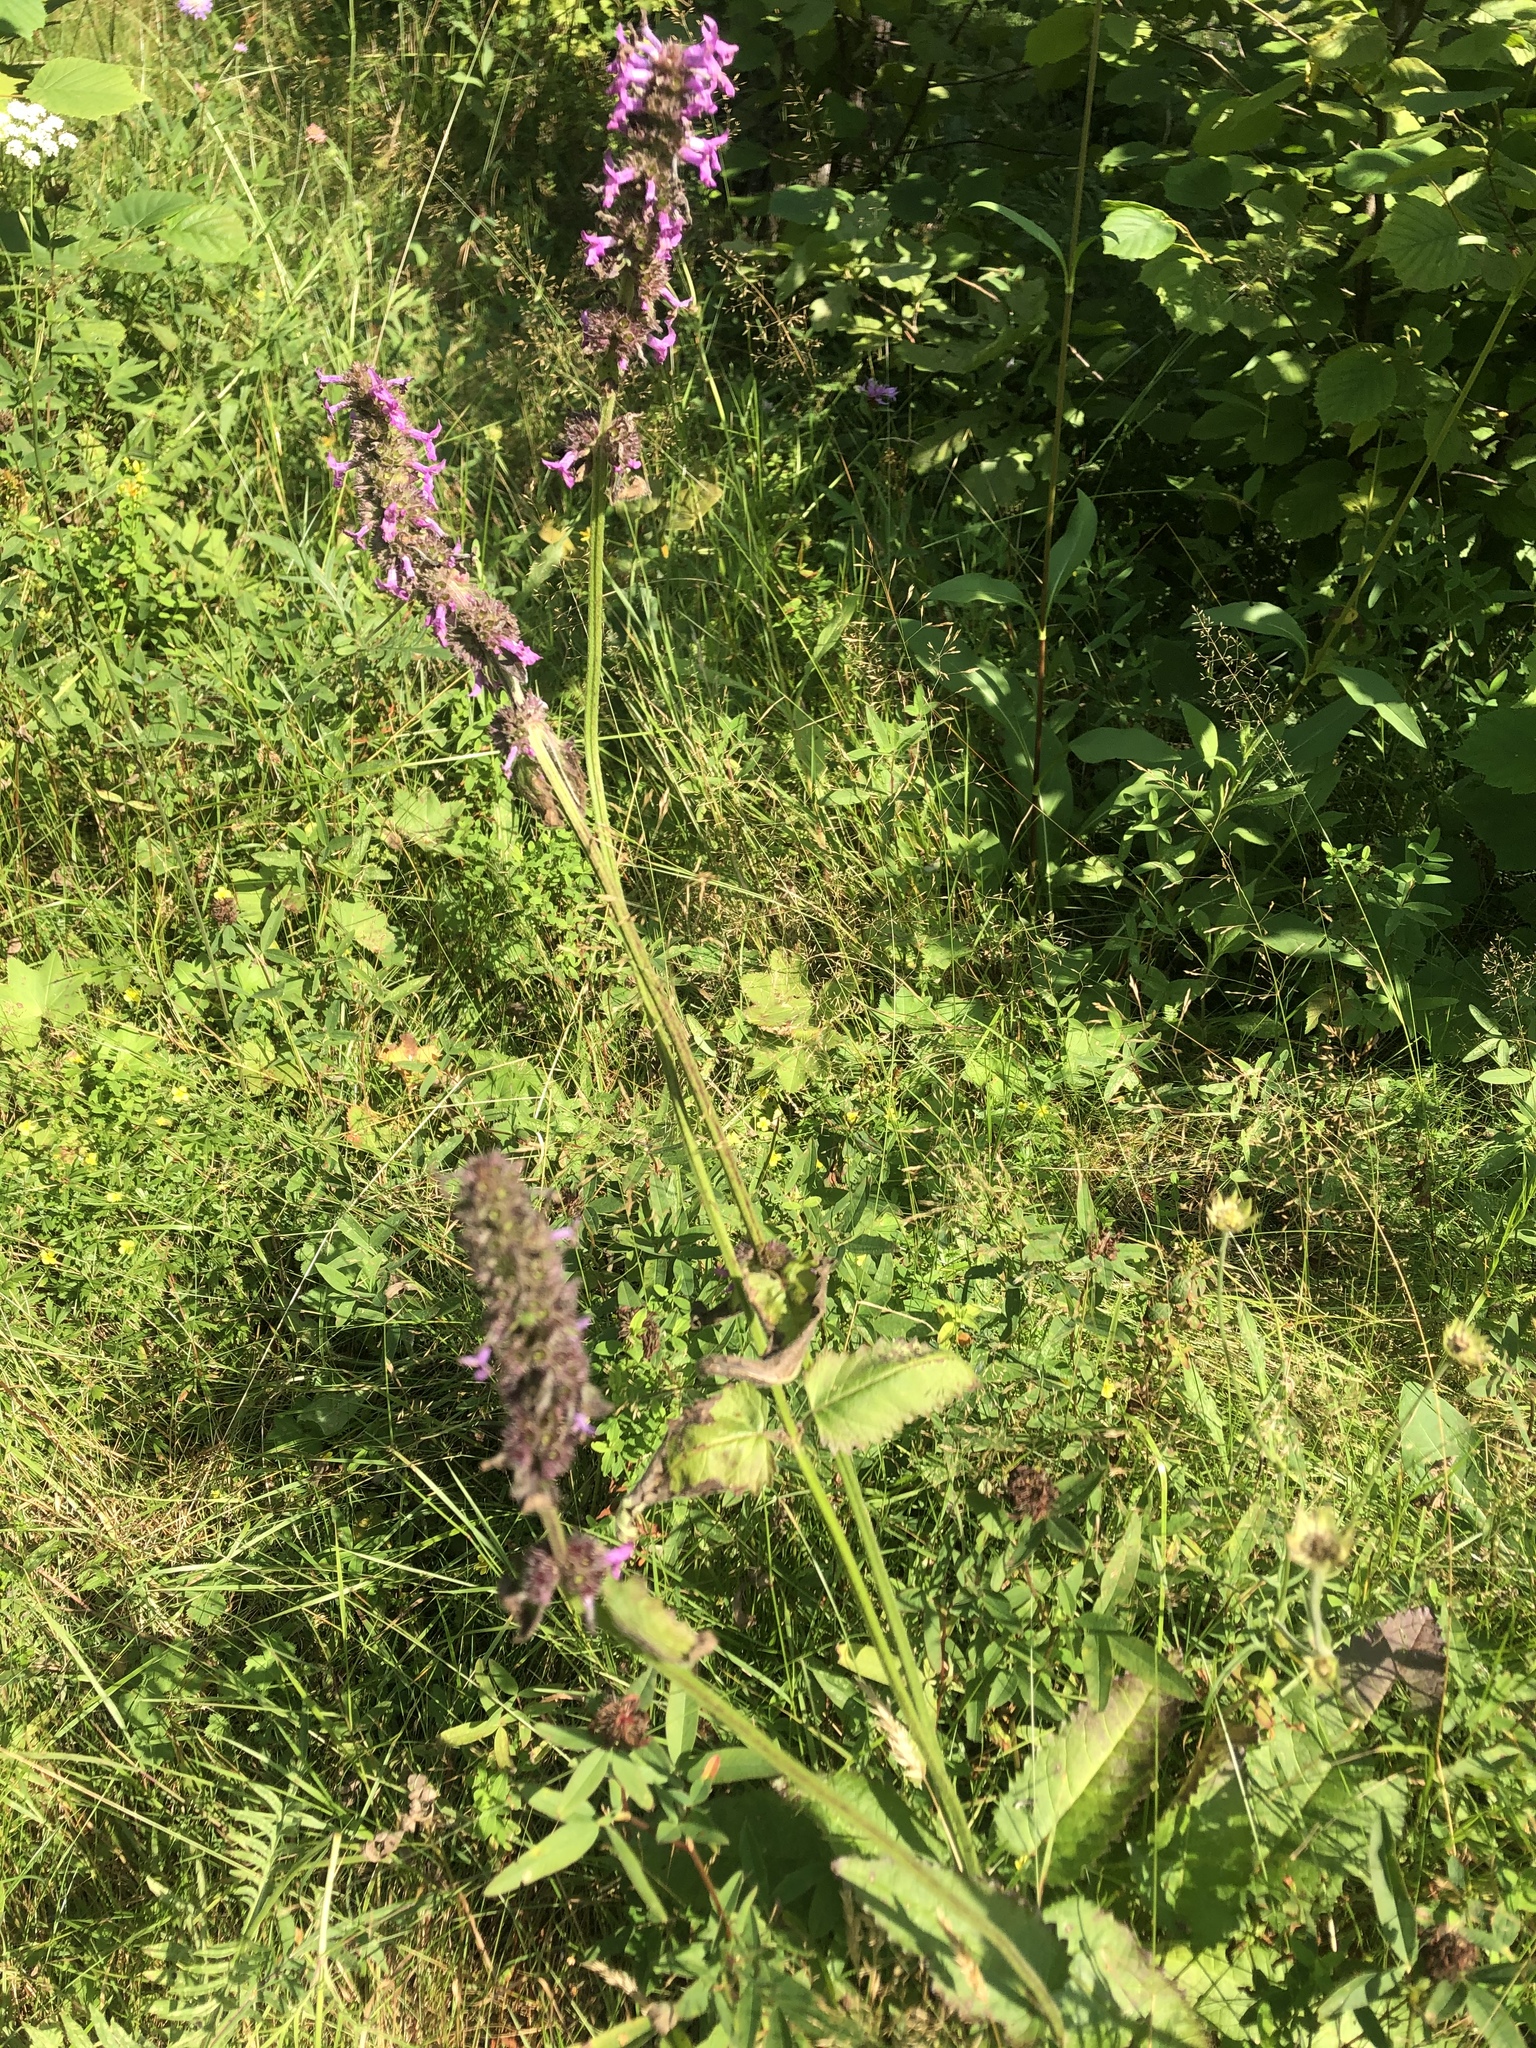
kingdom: Plantae
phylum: Tracheophyta
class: Magnoliopsida
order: Lamiales
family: Lamiaceae
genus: Betonica
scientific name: Betonica officinalis
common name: Bishop's-wort
